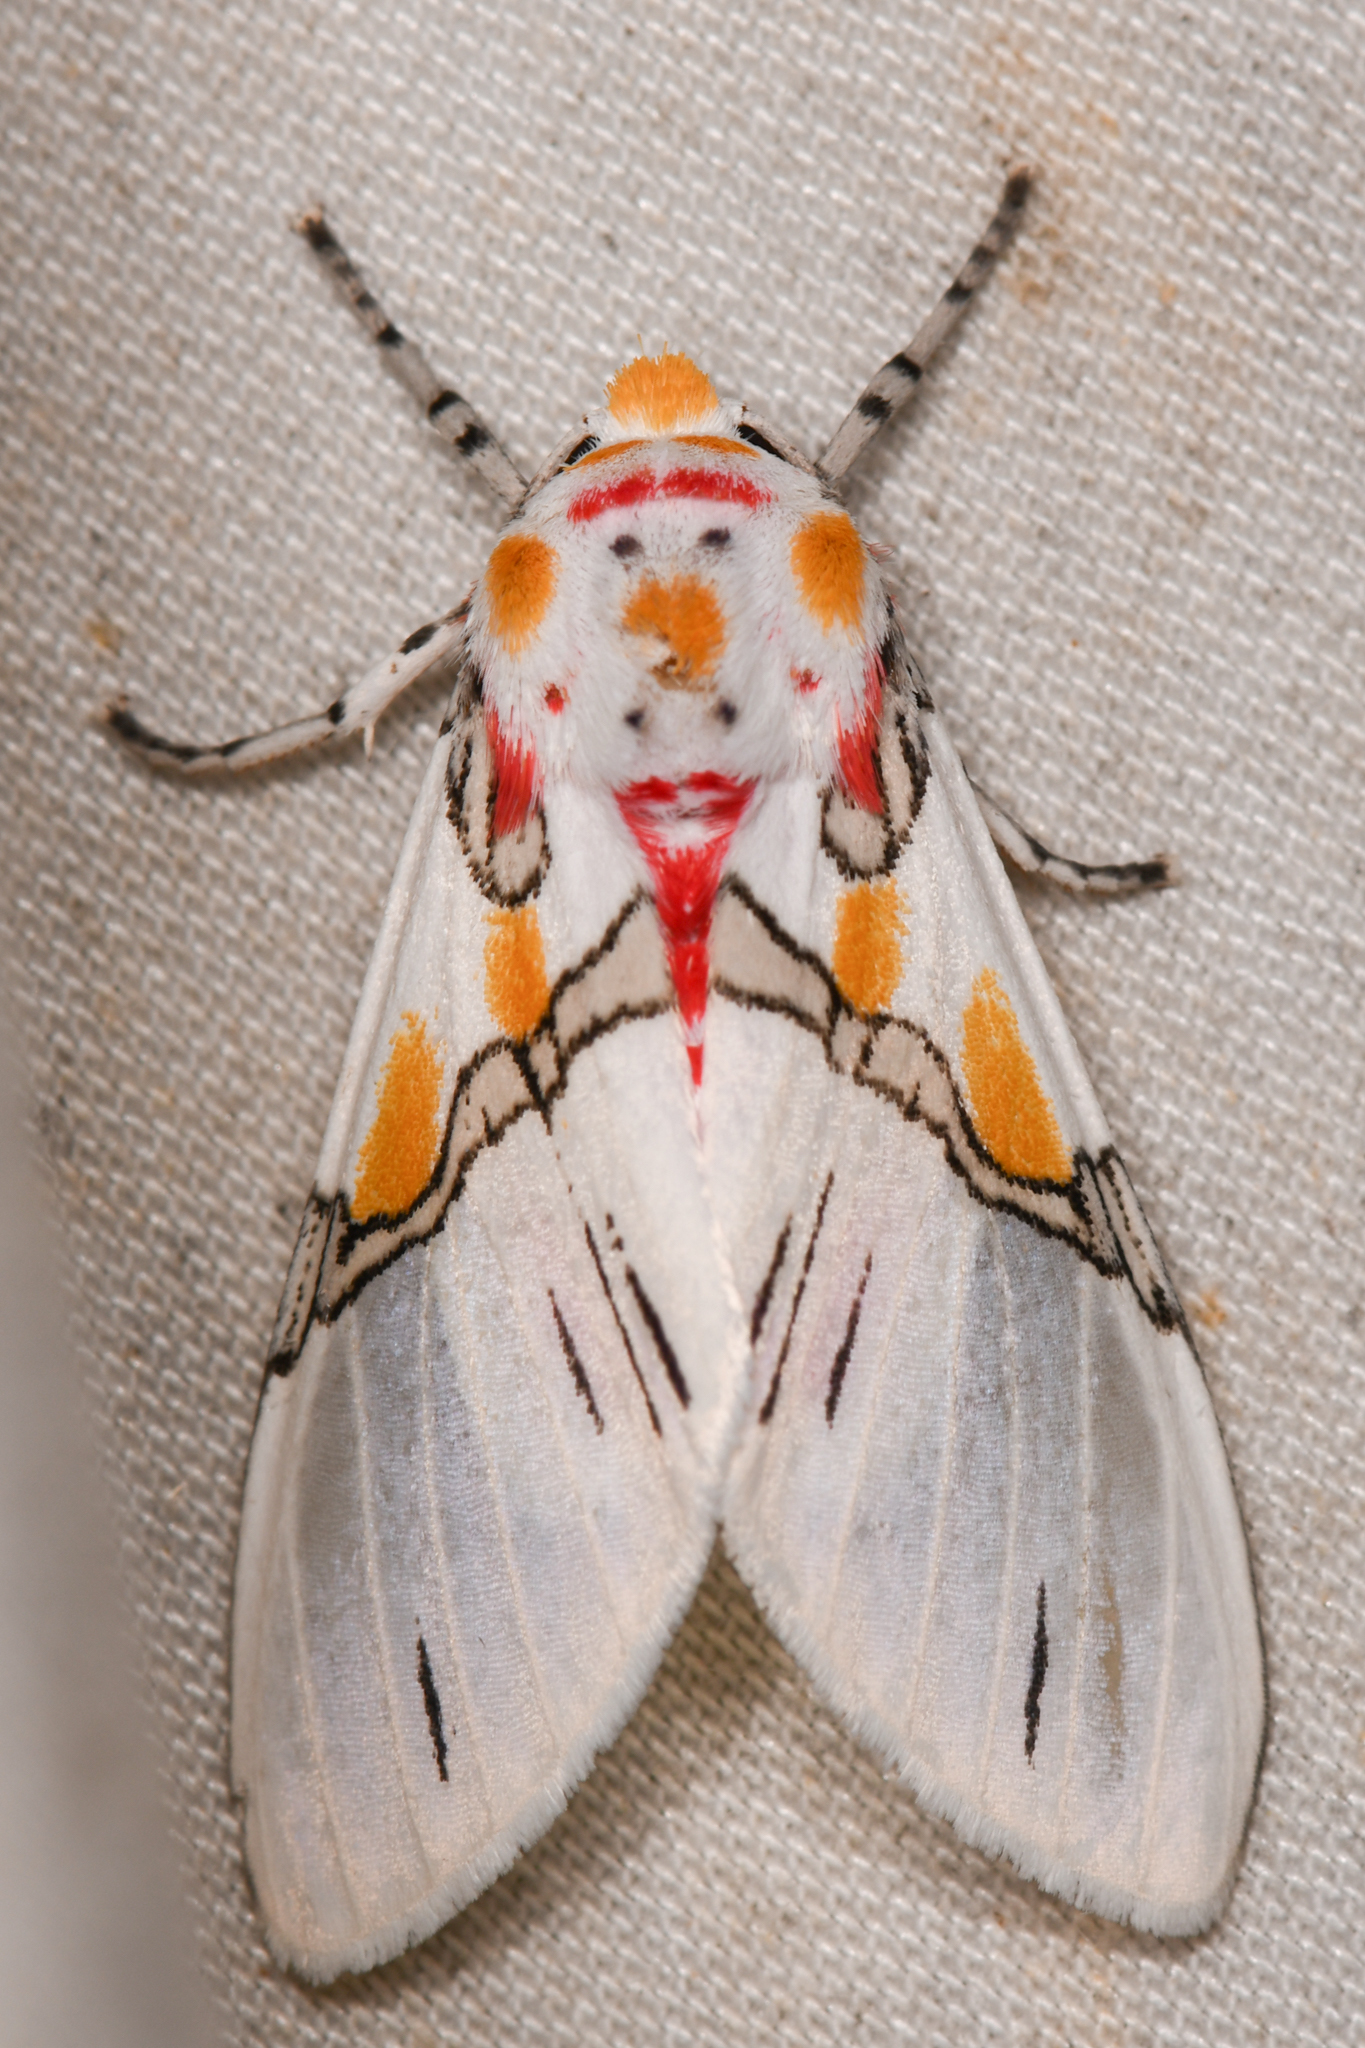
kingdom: Animalia
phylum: Arthropoda
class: Insecta
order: Lepidoptera
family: Erebidae
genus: Idalus
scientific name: Idalus crinis
